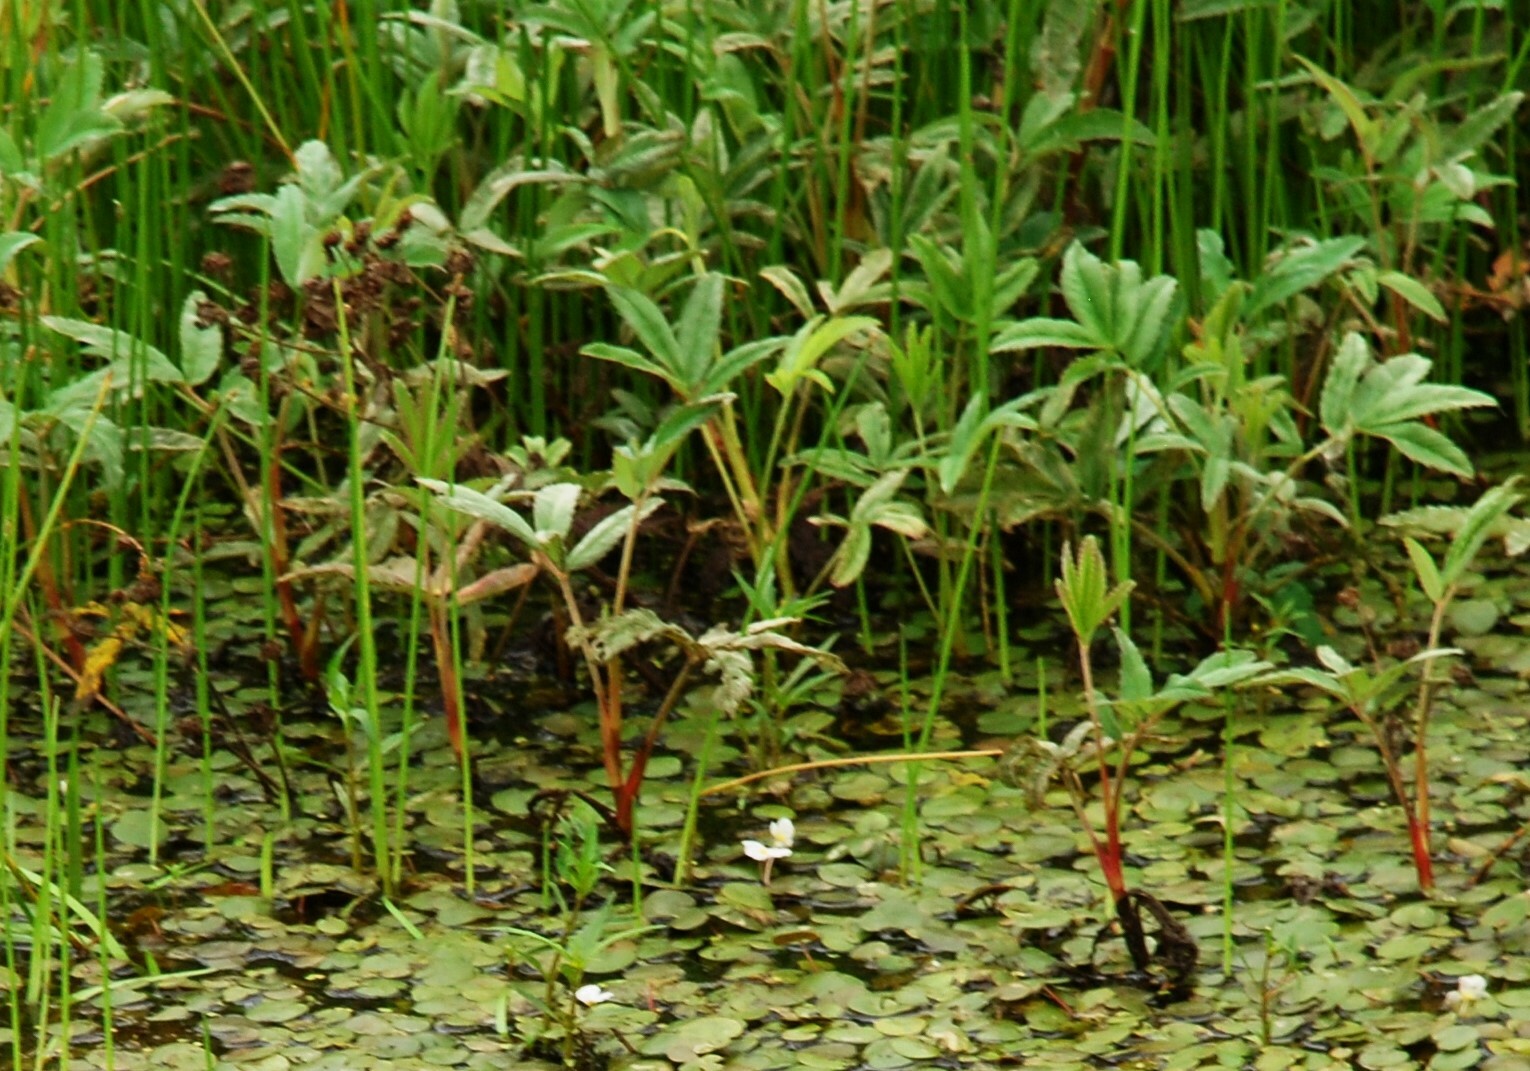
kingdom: Plantae
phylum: Tracheophyta
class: Magnoliopsida
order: Rosales
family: Rosaceae
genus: Comarum
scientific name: Comarum palustre
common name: Marsh cinquefoil
